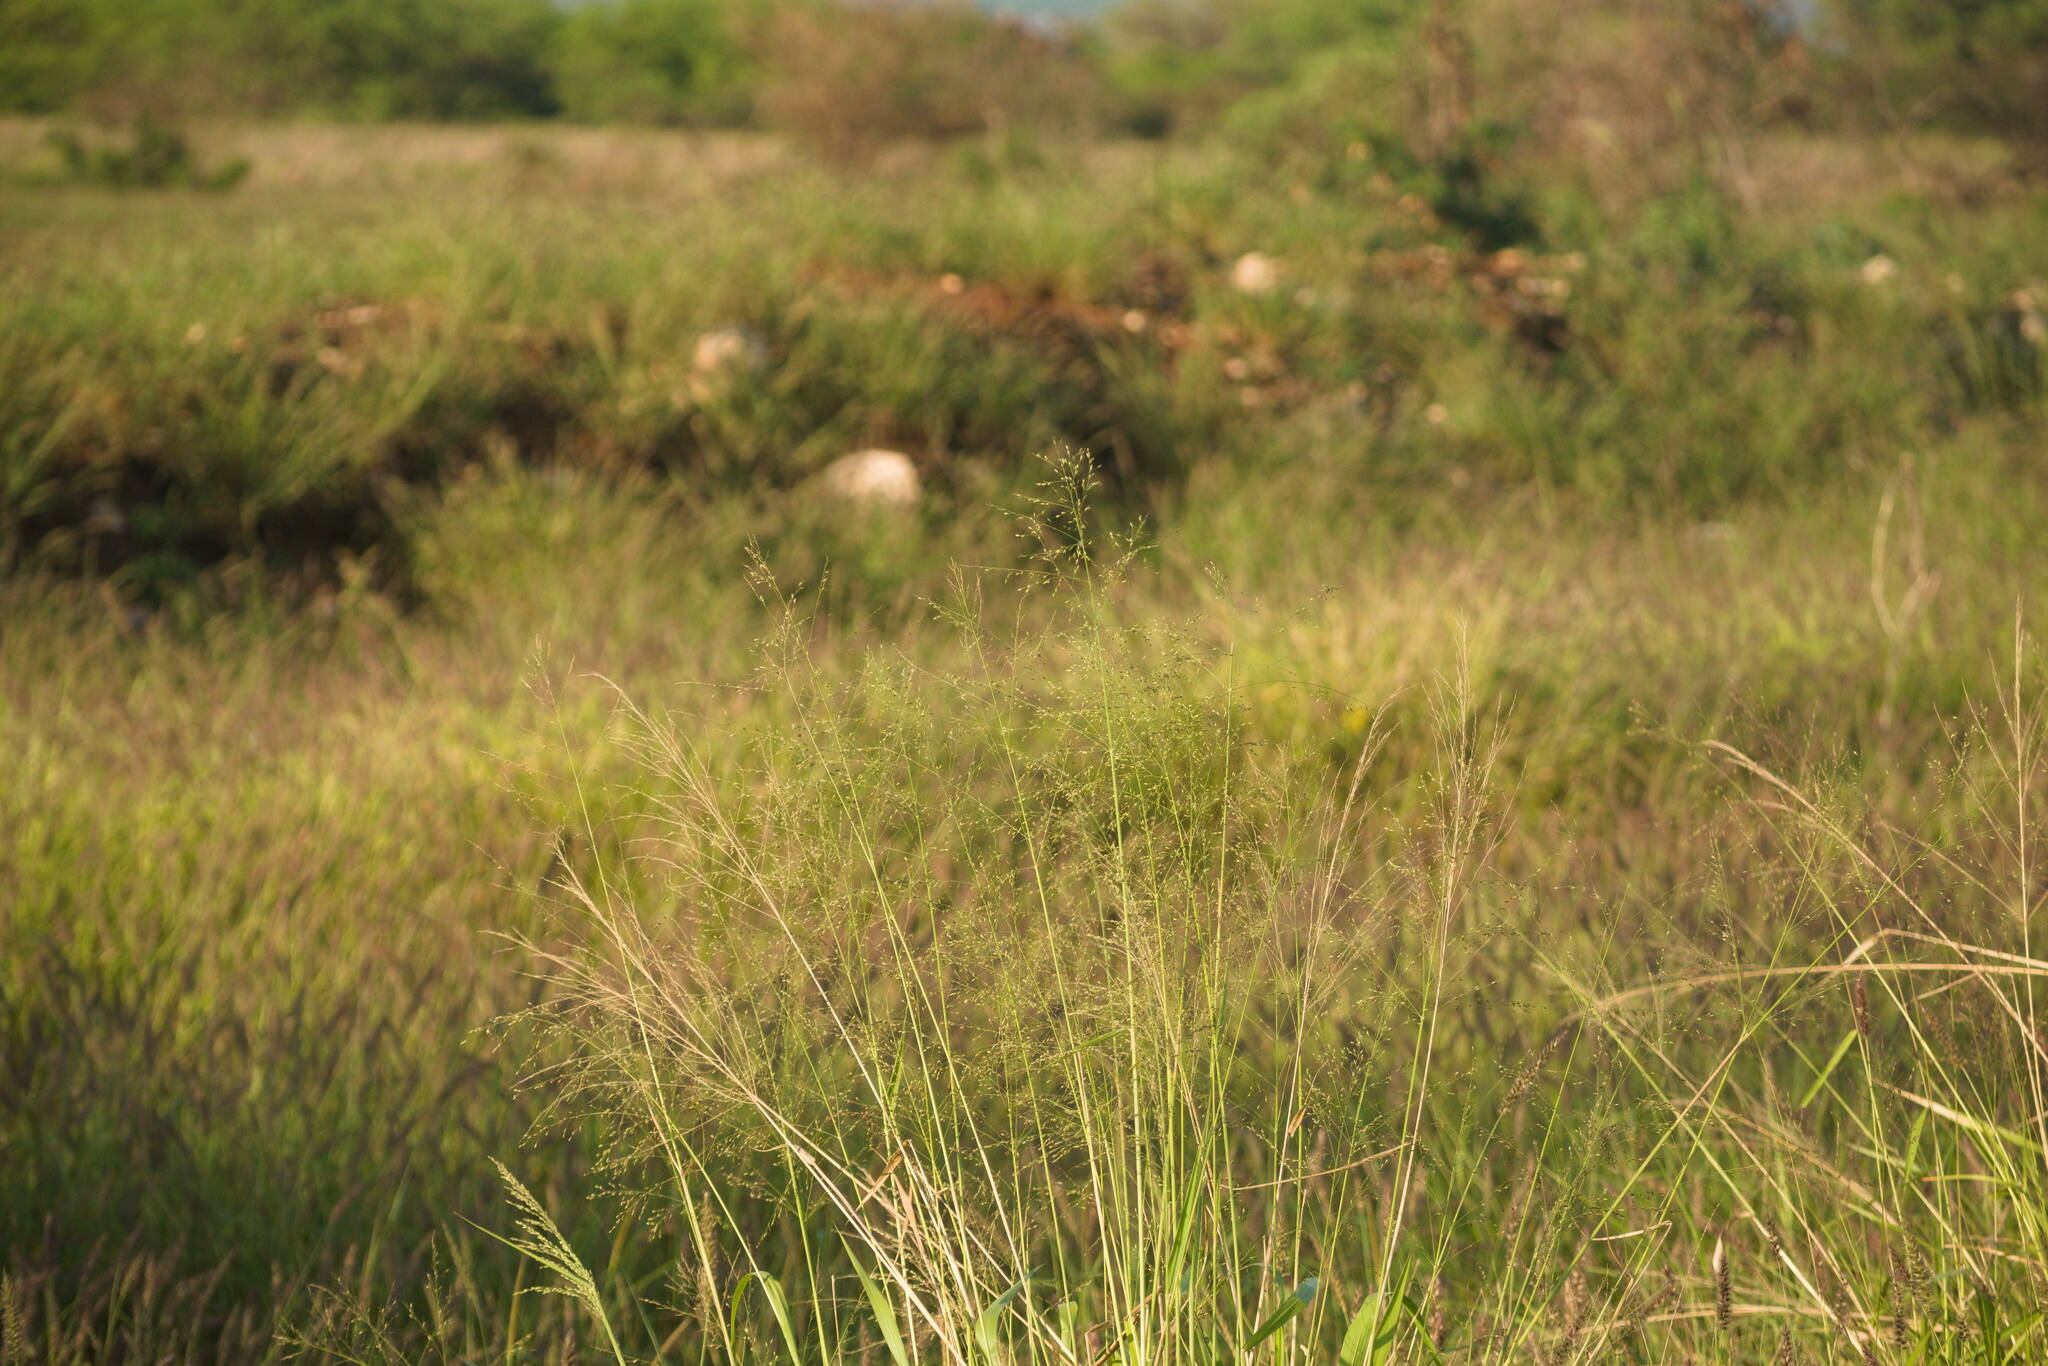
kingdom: Plantae
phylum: Tracheophyta
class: Liliopsida
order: Poales
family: Poaceae
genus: Megathyrsus
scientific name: Megathyrsus maximus
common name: Guineagrass
